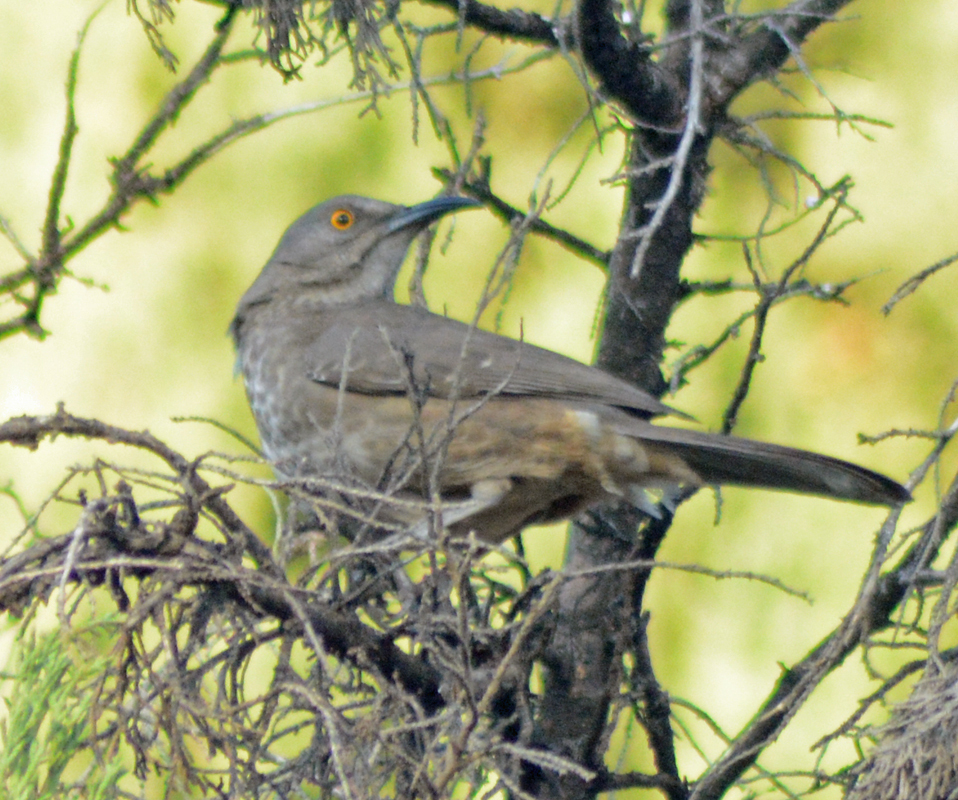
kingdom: Animalia
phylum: Chordata
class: Aves
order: Passeriformes
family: Mimidae
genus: Toxostoma
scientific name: Toxostoma curvirostre
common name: Curve-billed thrasher
